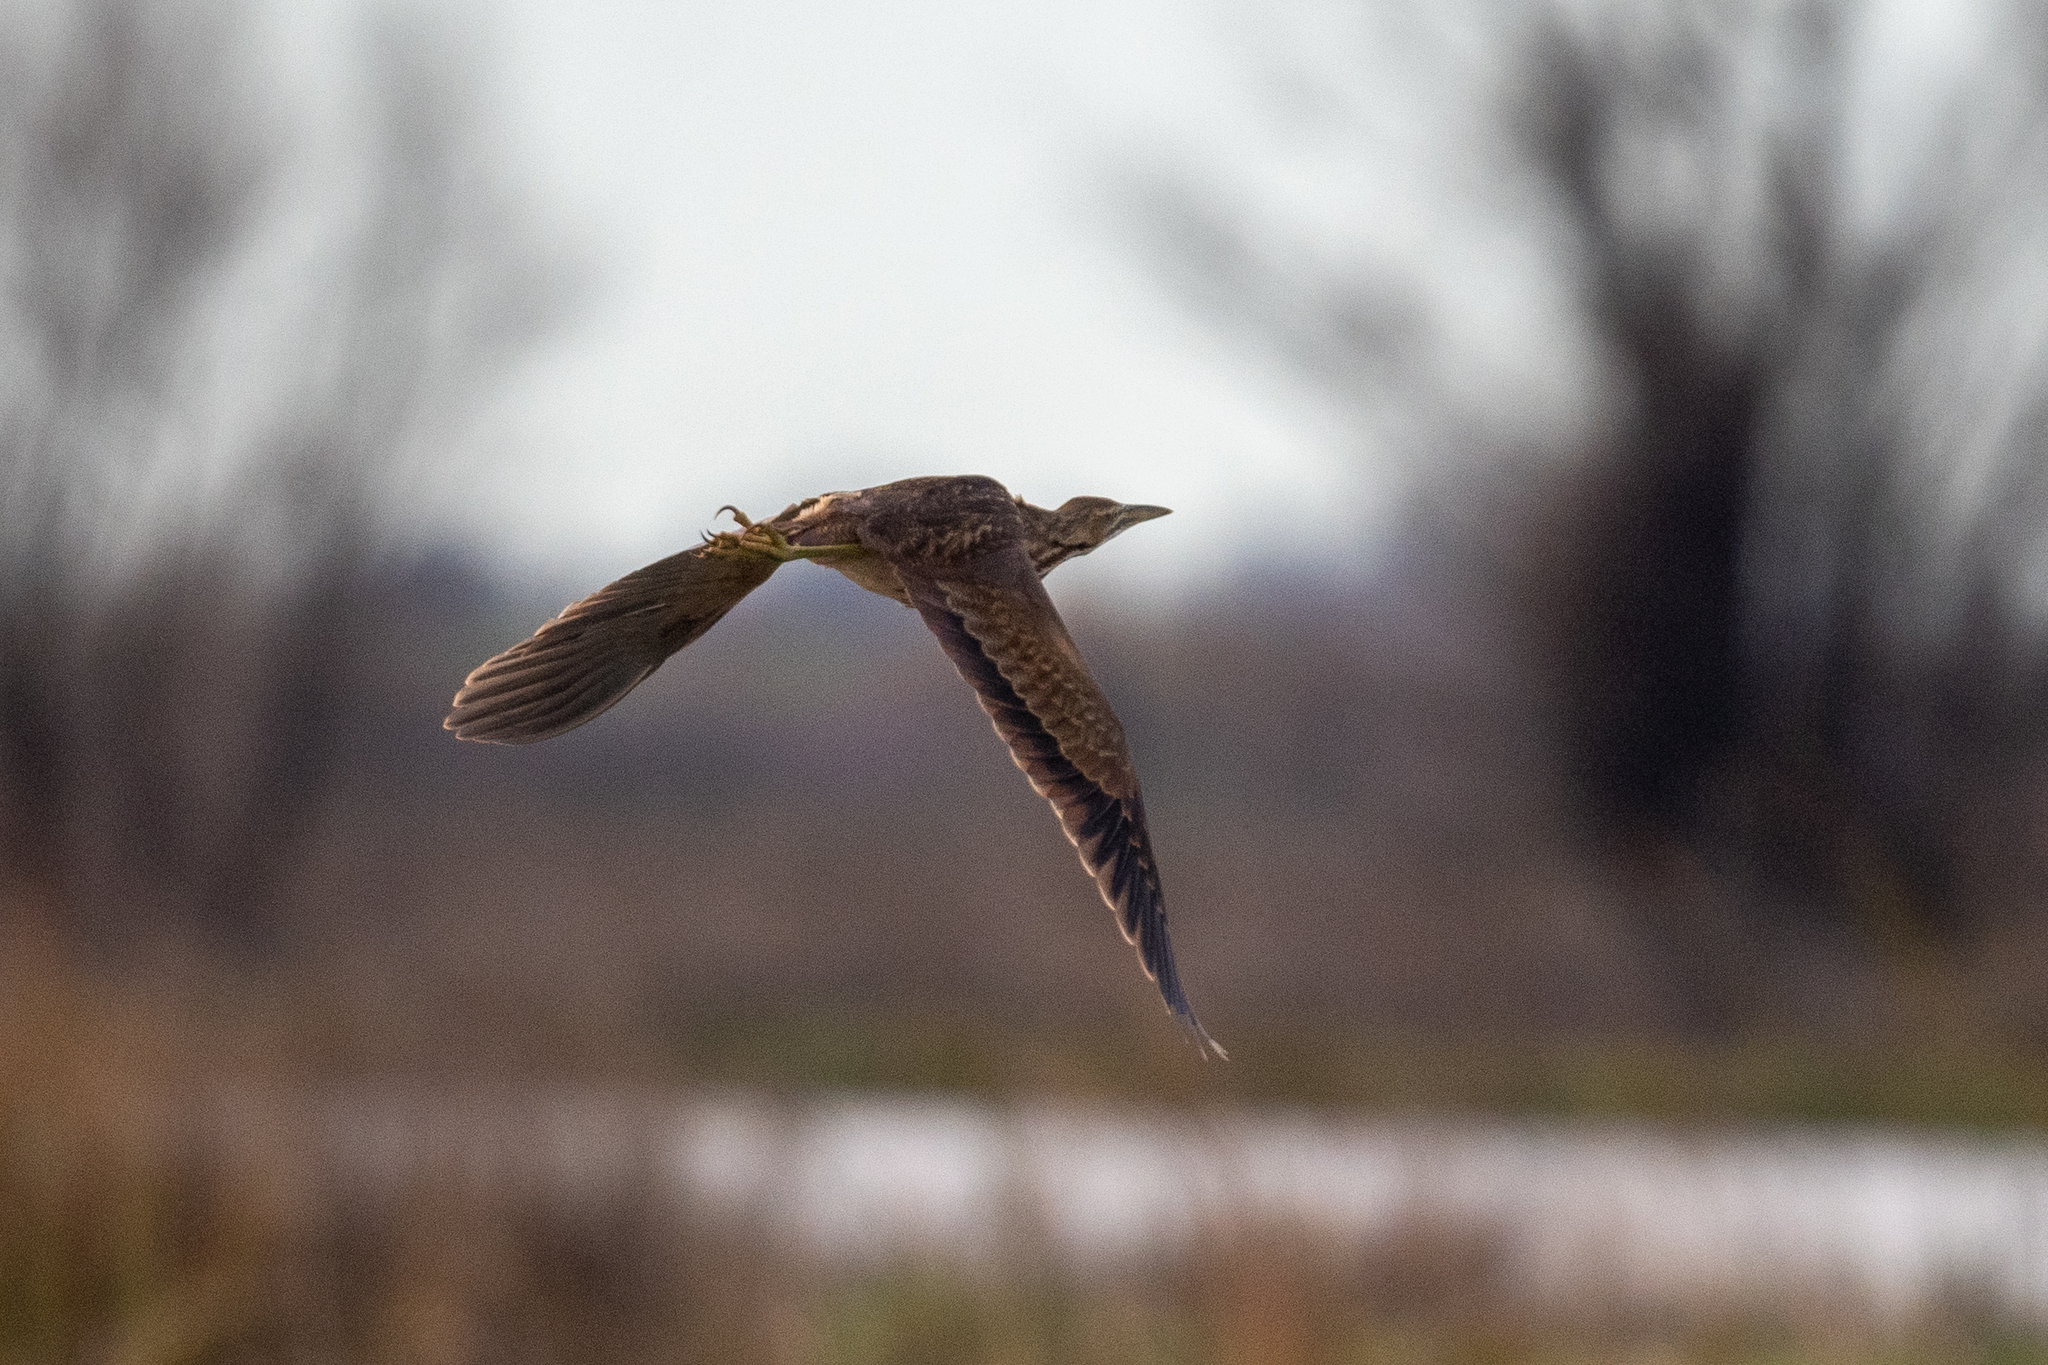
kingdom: Animalia
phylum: Chordata
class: Aves
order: Pelecaniformes
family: Ardeidae
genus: Botaurus
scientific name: Botaurus lentiginosus
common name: American bittern
